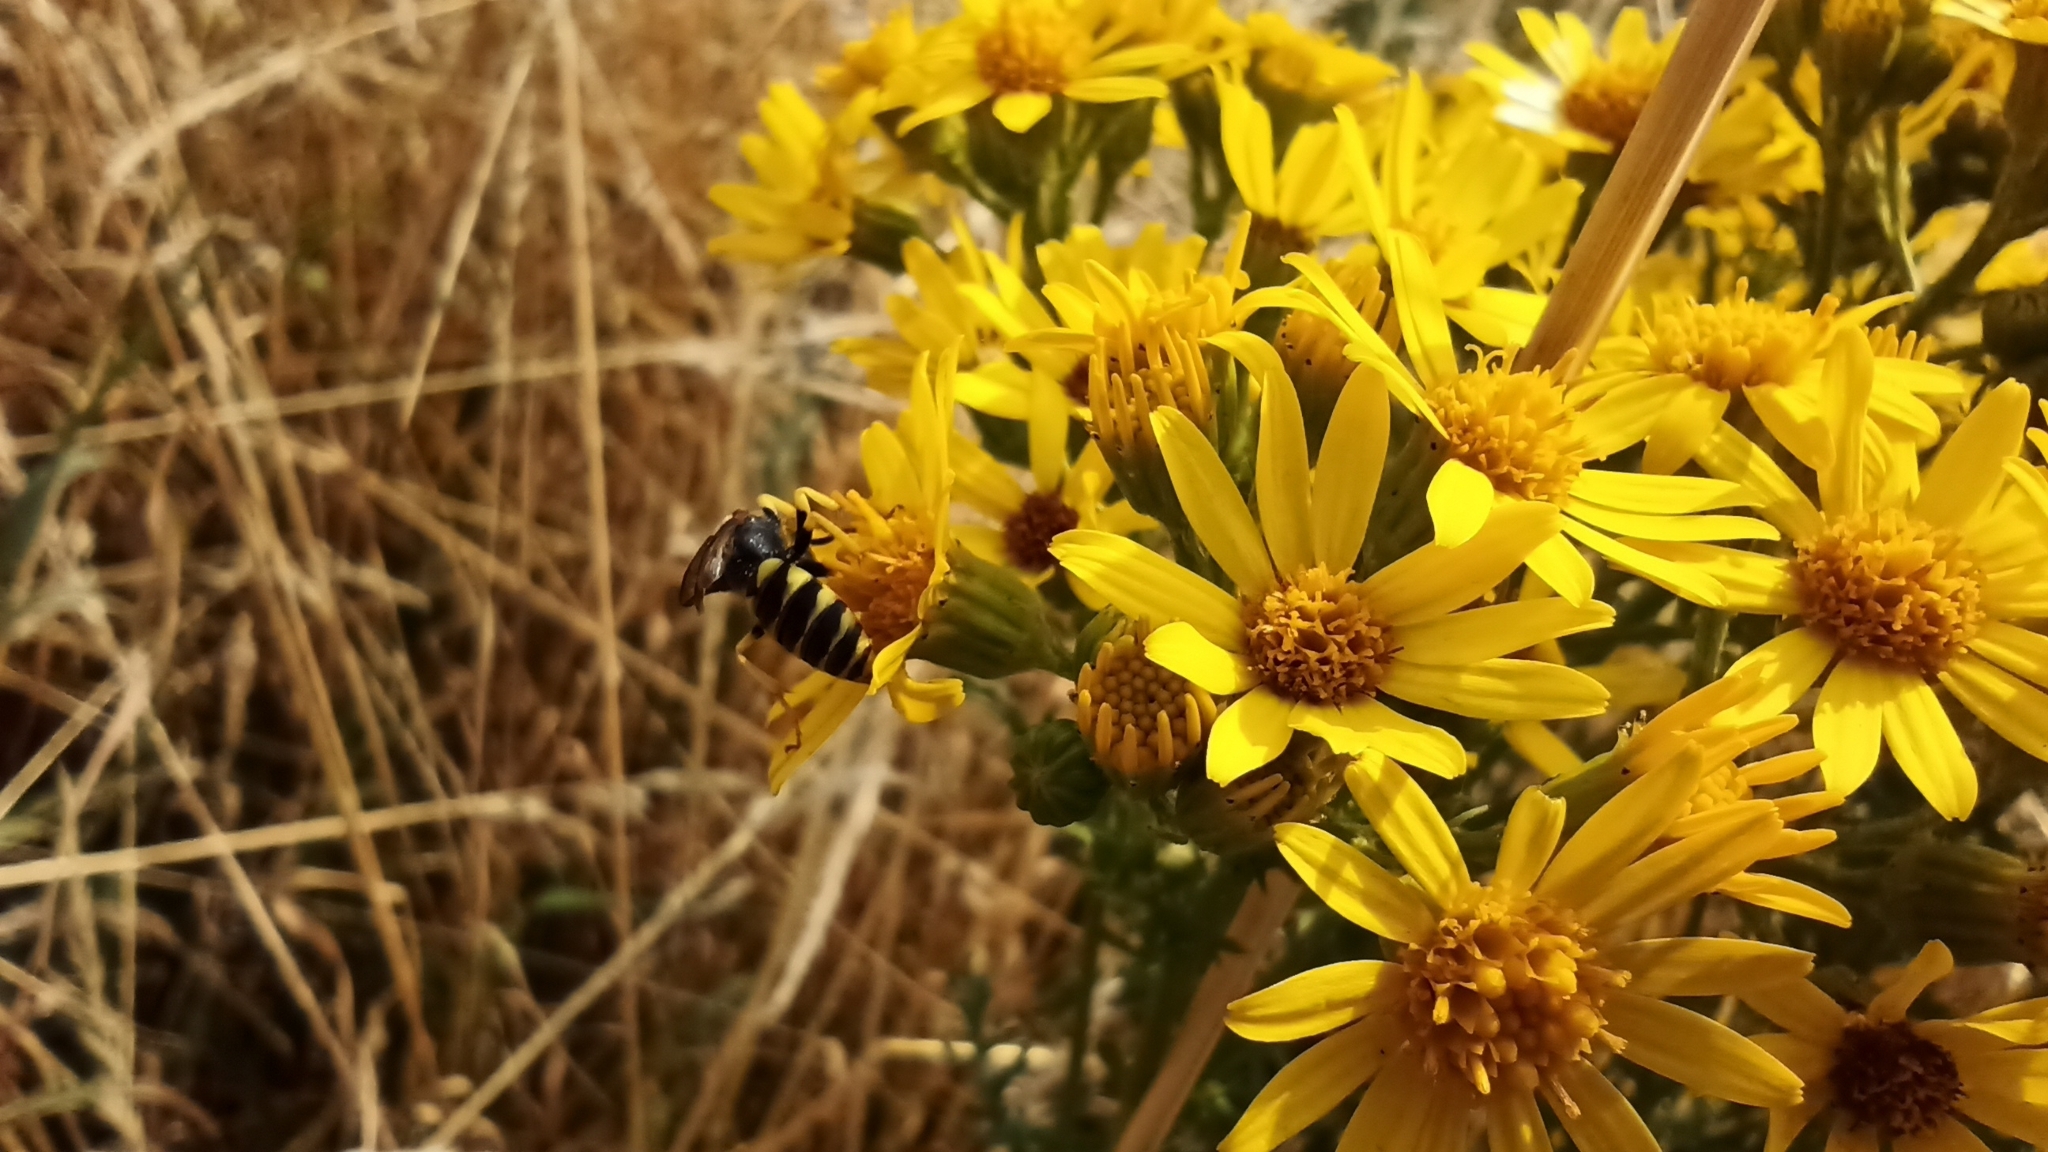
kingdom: Animalia
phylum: Arthropoda
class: Insecta
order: Hymenoptera
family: Crabronidae
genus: Philanthus
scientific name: Philanthus triangulum
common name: Bee wolf
